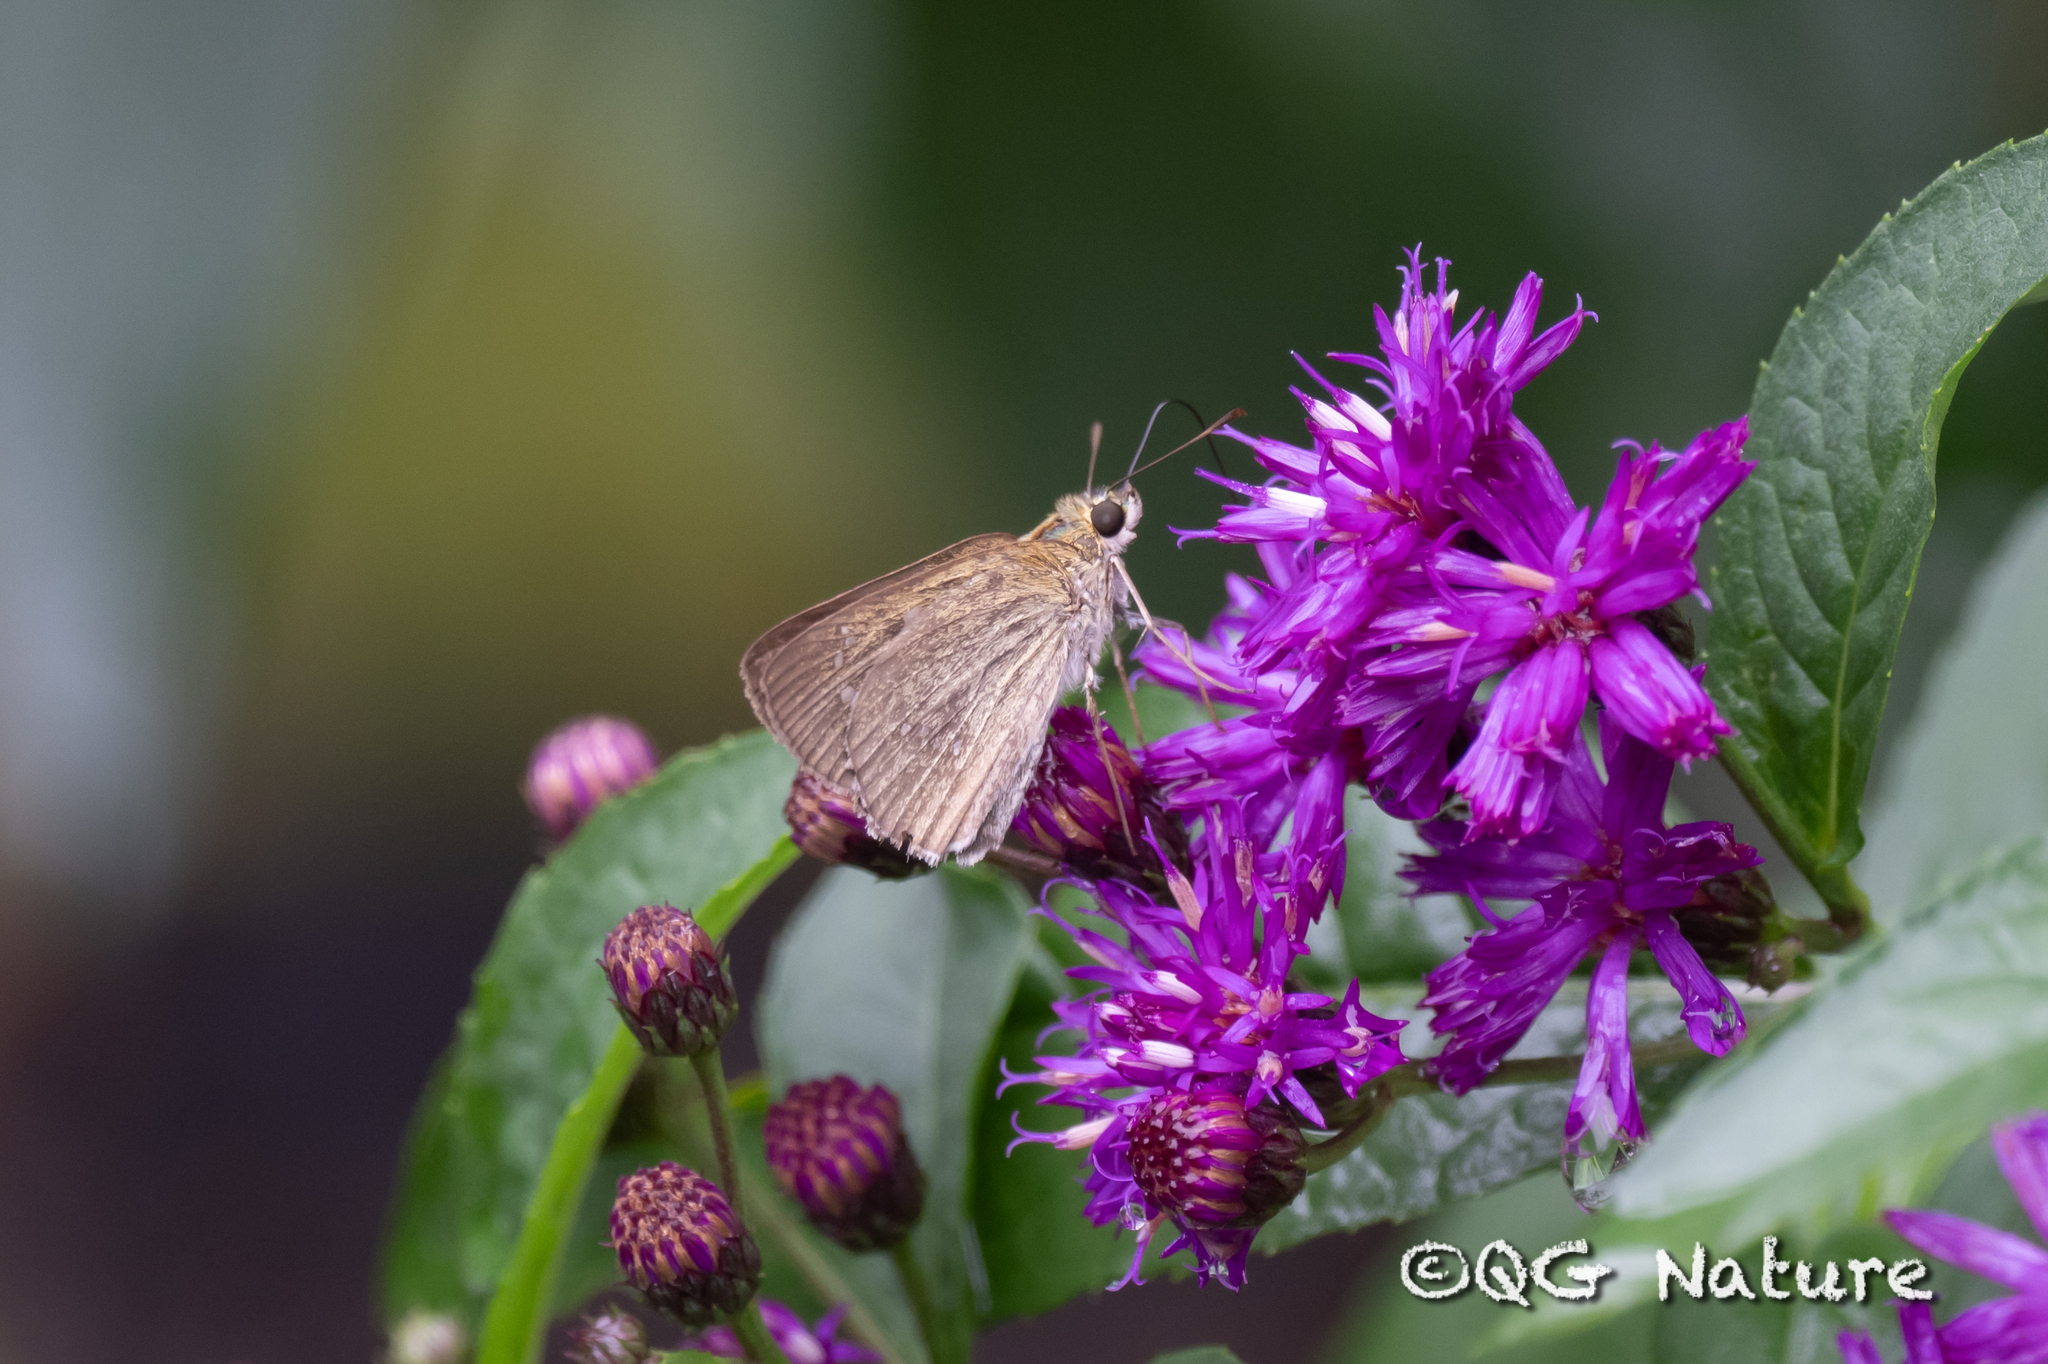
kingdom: Animalia
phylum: Arthropoda
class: Insecta
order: Lepidoptera
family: Hesperiidae
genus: Polytremis
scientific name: Polytremis mencia
